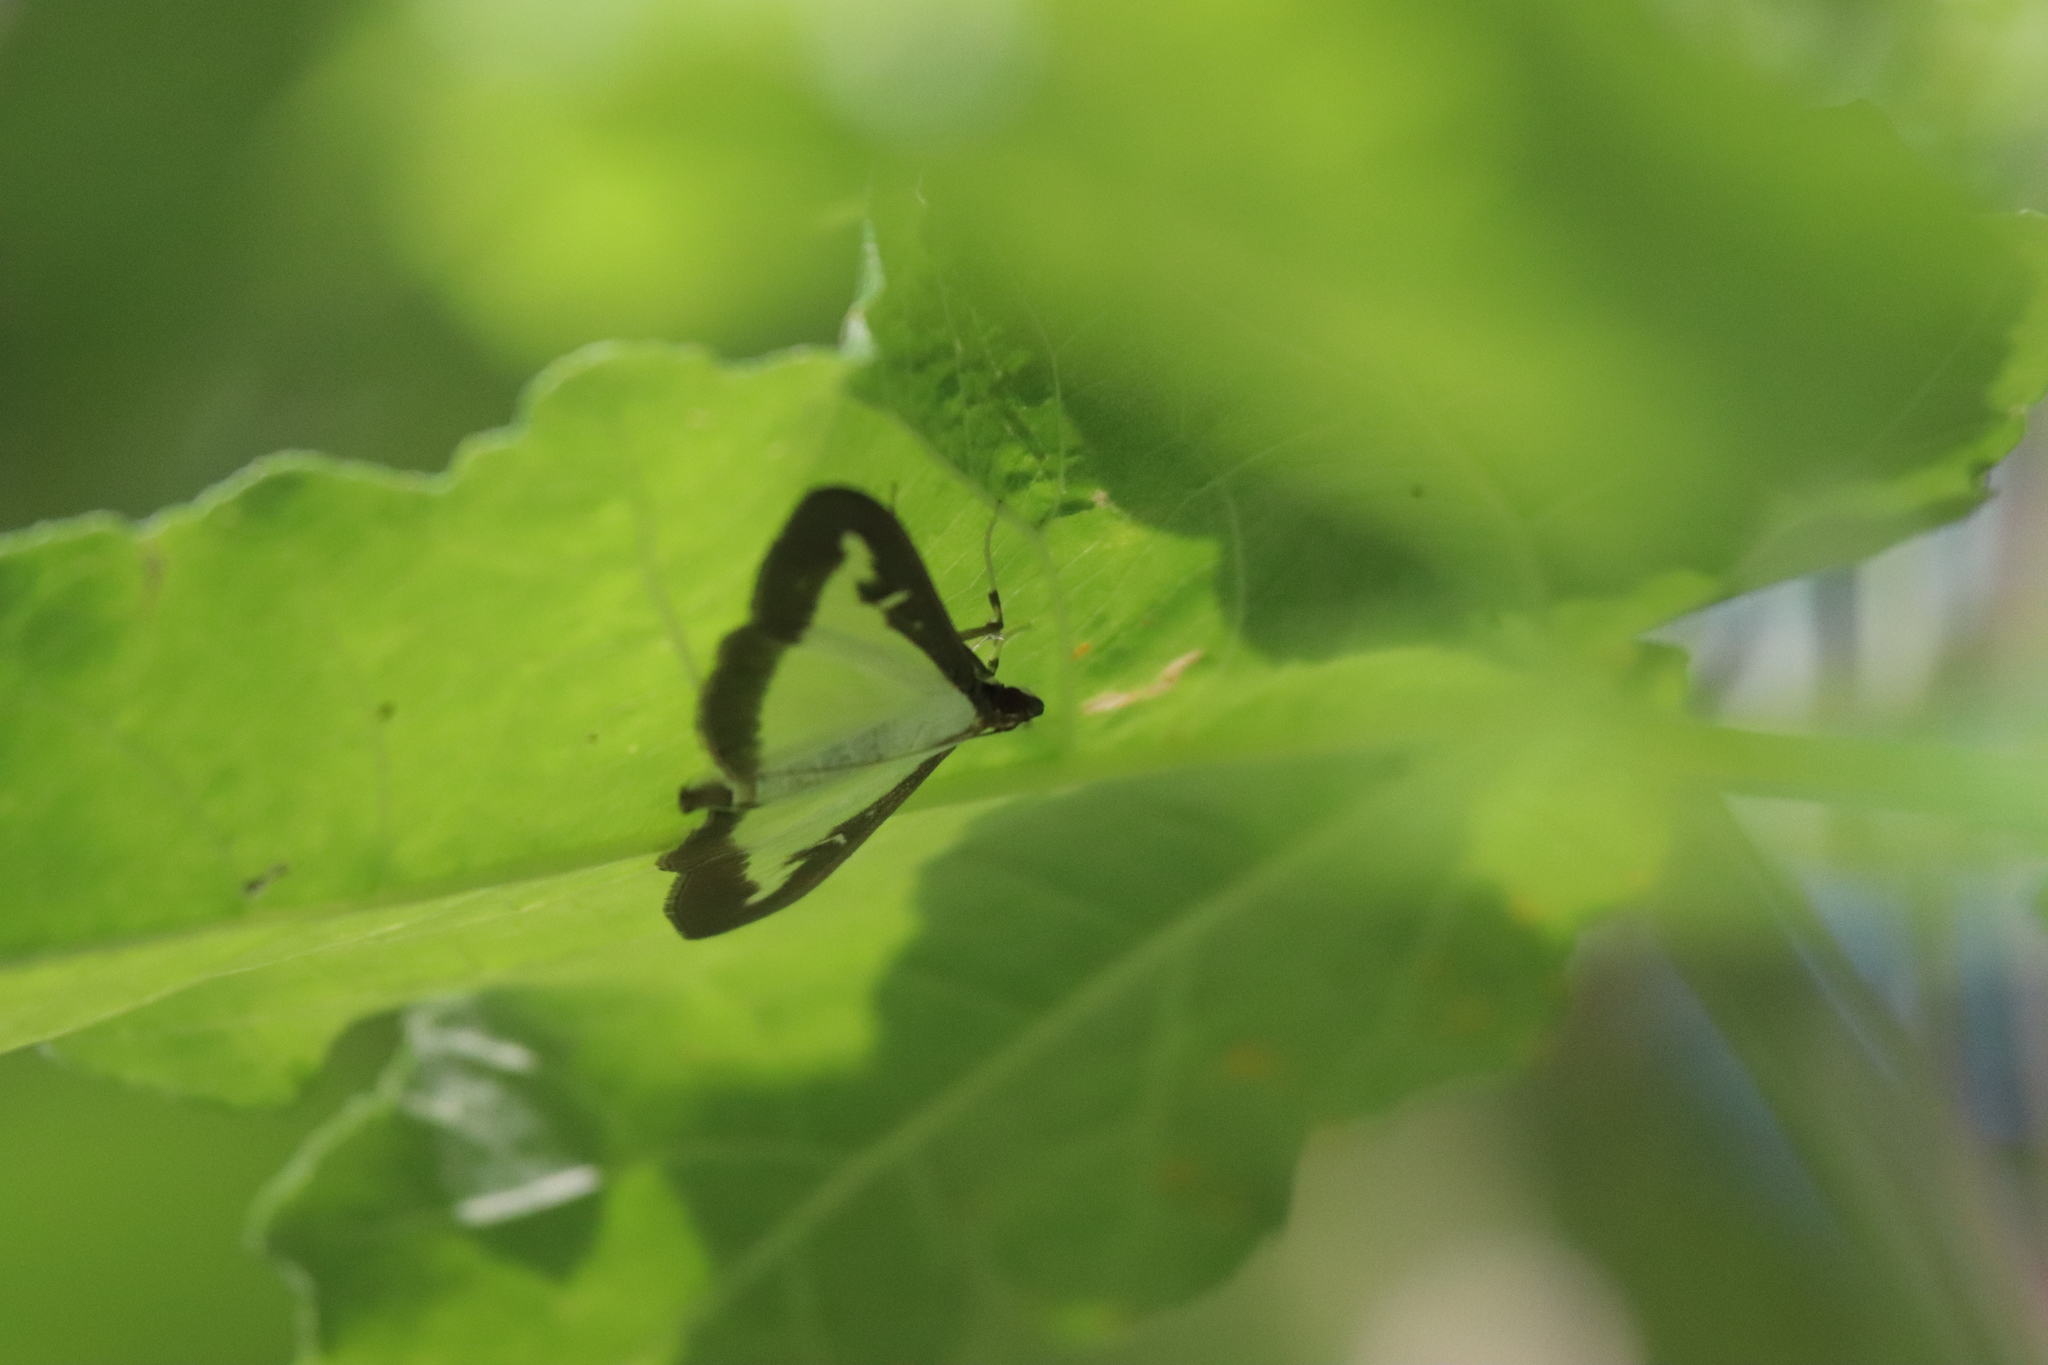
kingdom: Animalia
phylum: Arthropoda
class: Insecta
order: Lepidoptera
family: Crambidae
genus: Cydalima
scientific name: Cydalima perspectalis
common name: Box tree moth
